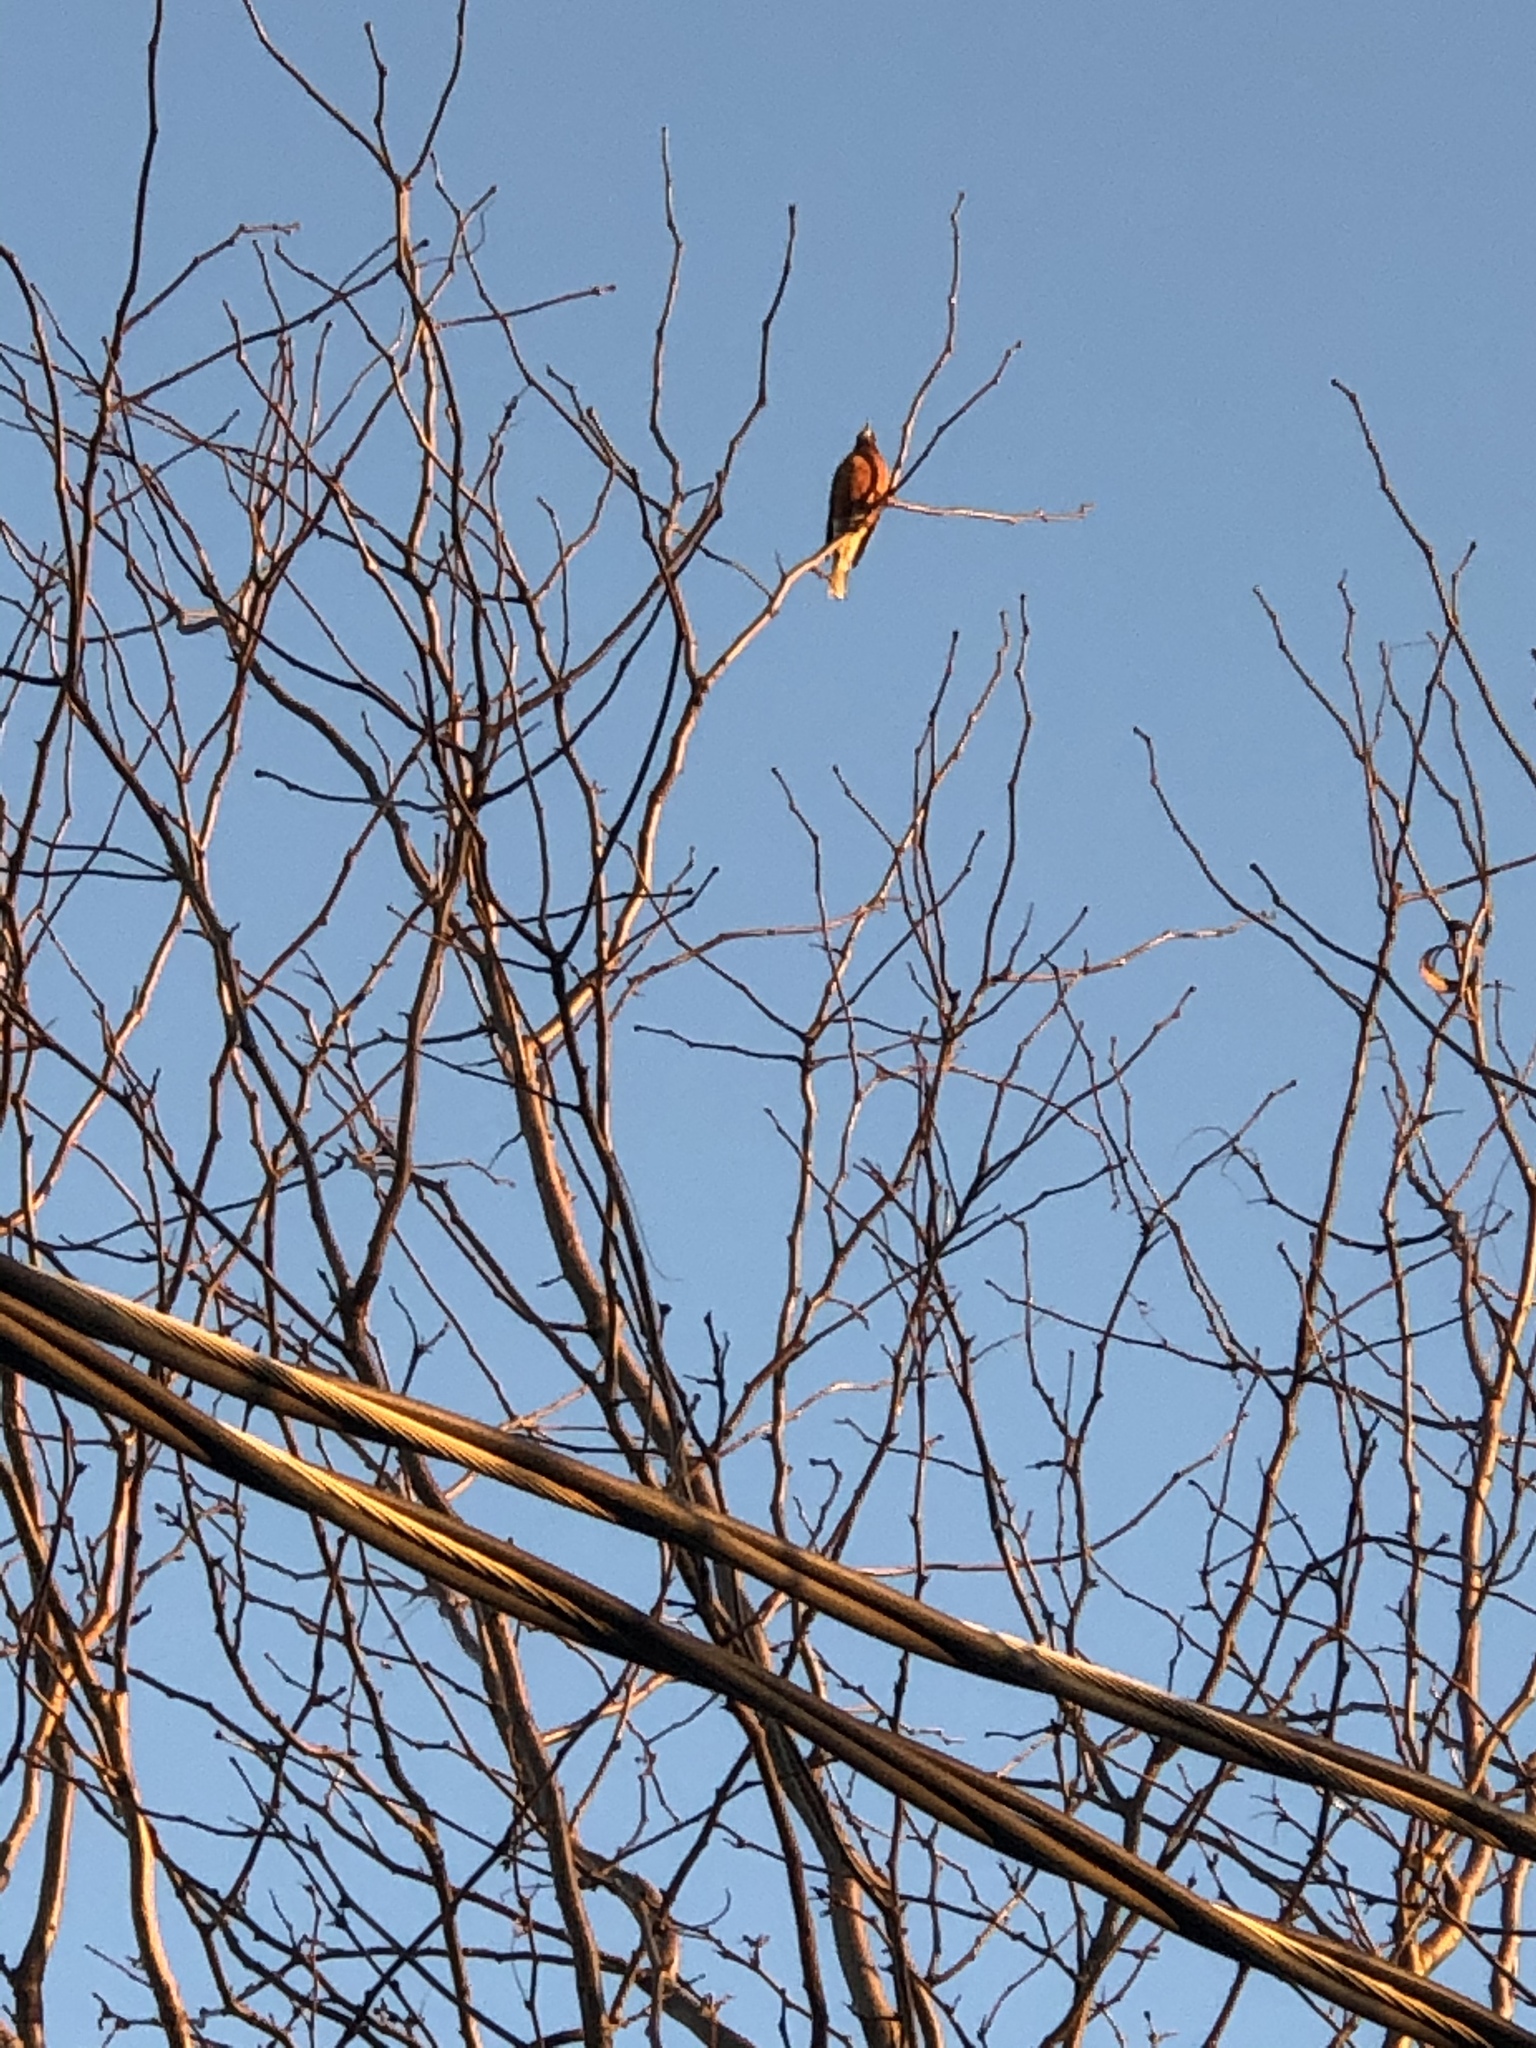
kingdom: Animalia
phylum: Chordata
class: Aves
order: Passeriformes
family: Turdidae
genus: Turdus
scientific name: Turdus migratorius
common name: American robin
